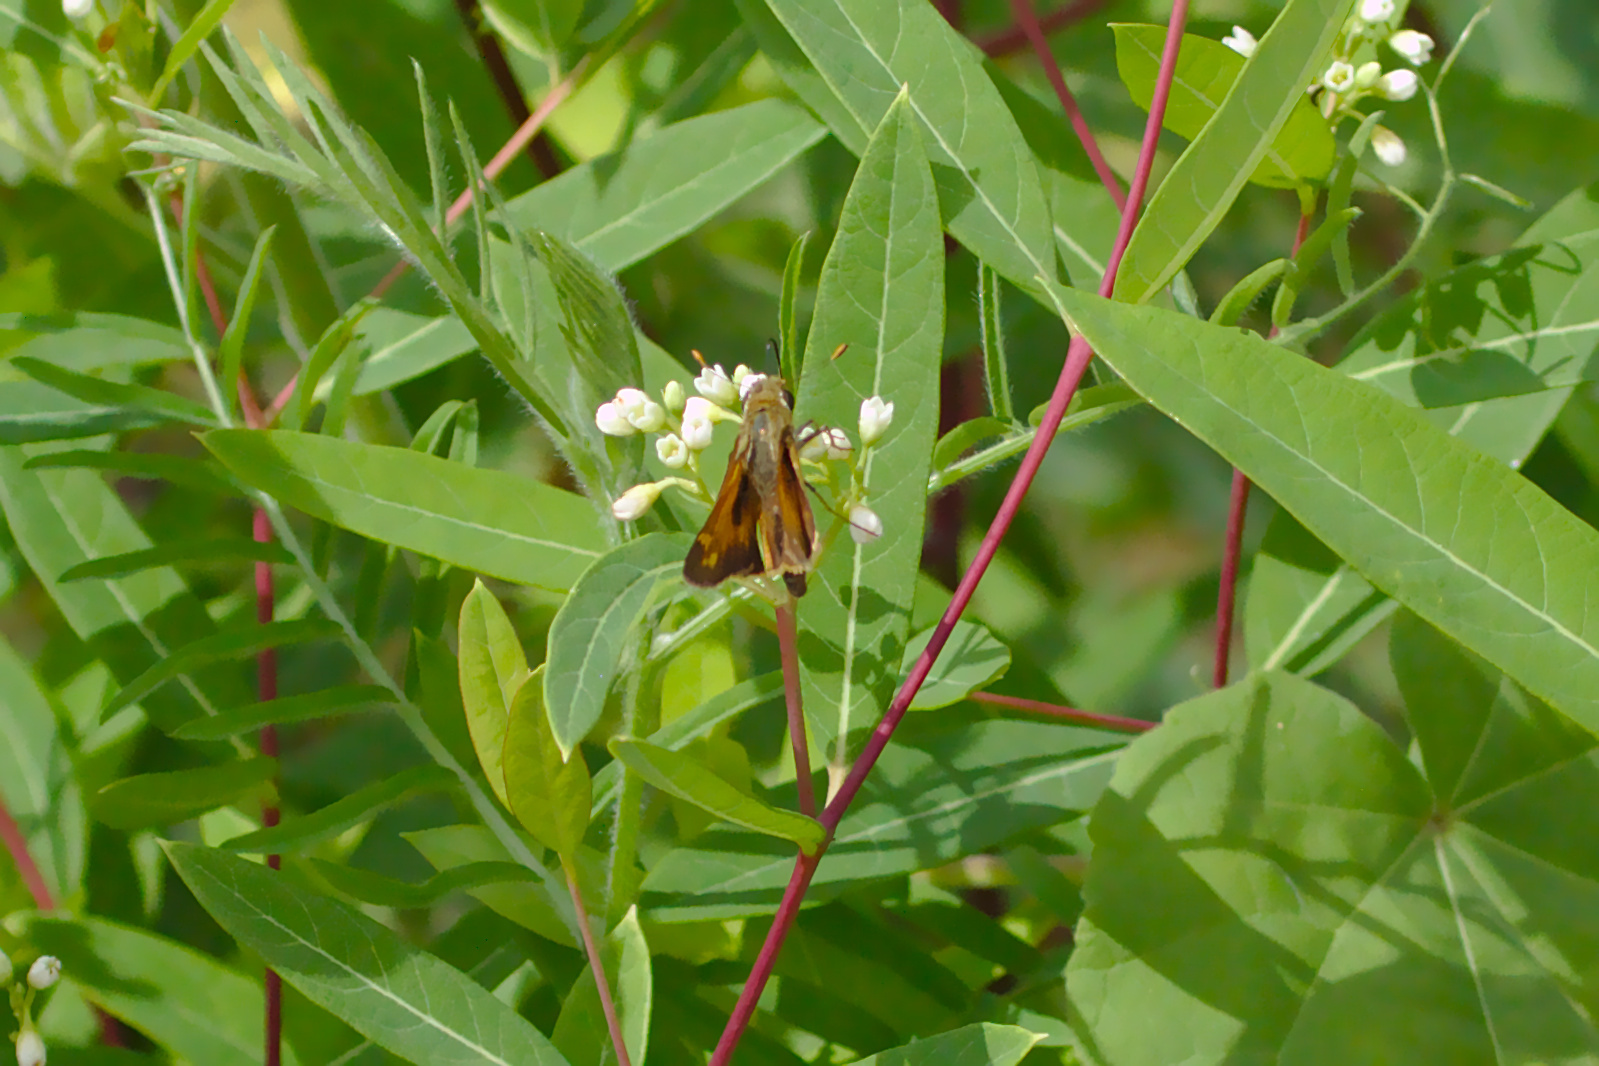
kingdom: Animalia
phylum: Arthropoda
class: Insecta
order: Lepidoptera
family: Hesperiidae
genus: Atalopedes
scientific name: Atalopedes
